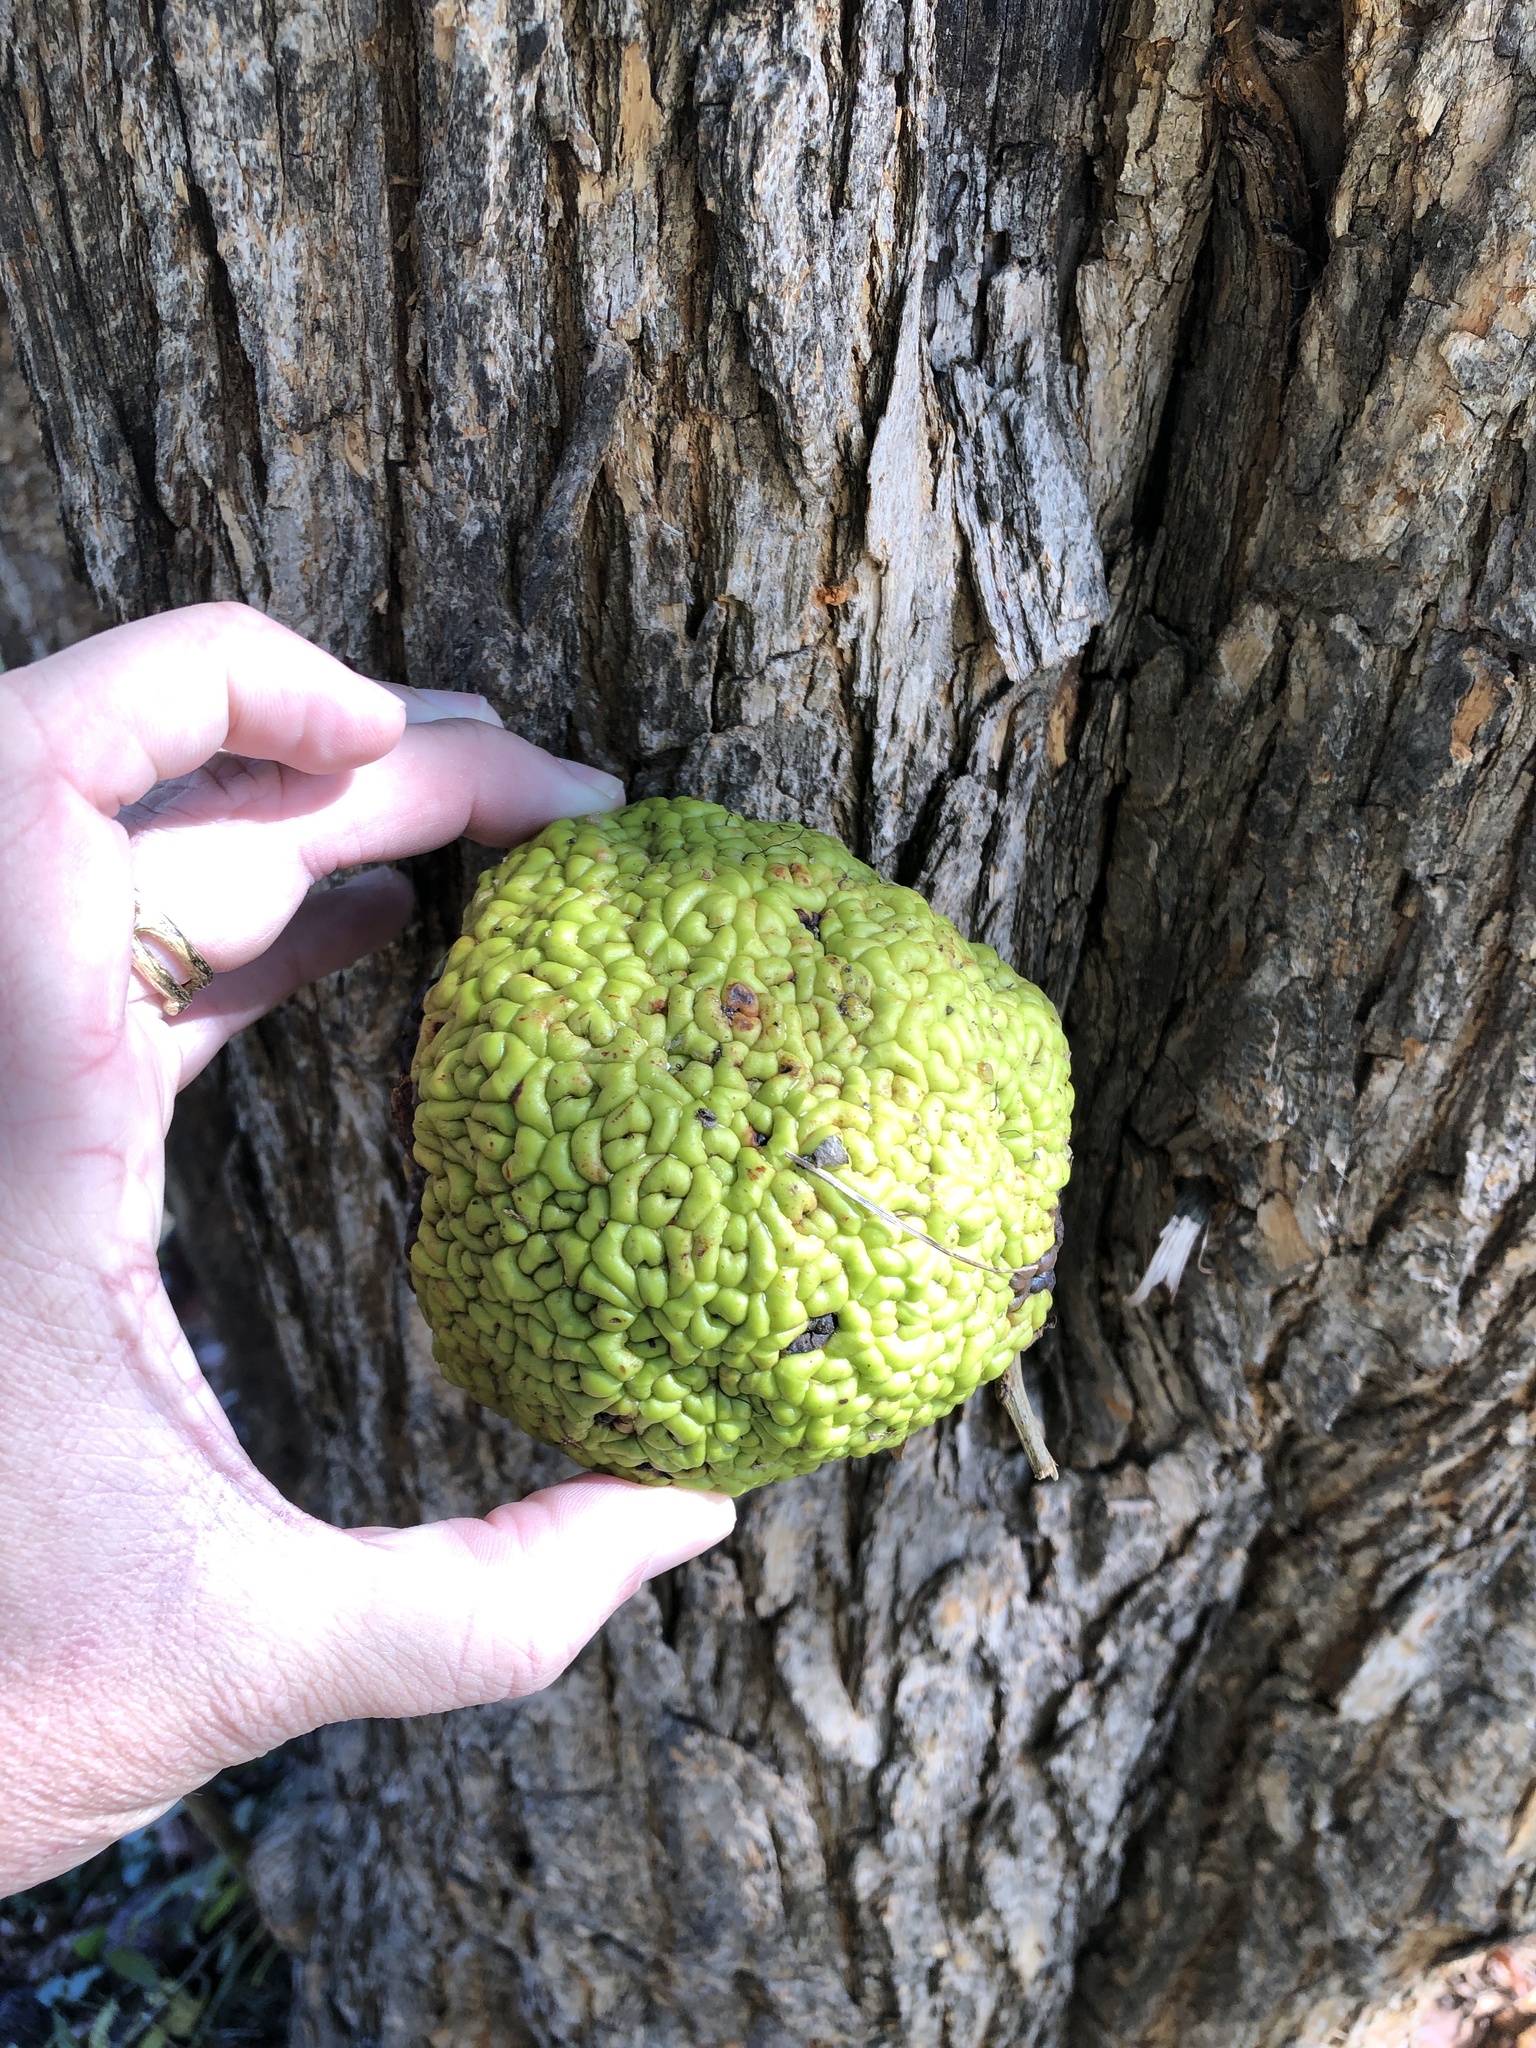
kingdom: Plantae
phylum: Tracheophyta
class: Magnoliopsida
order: Rosales
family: Moraceae
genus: Maclura
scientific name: Maclura pomifera
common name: Osage-orange
